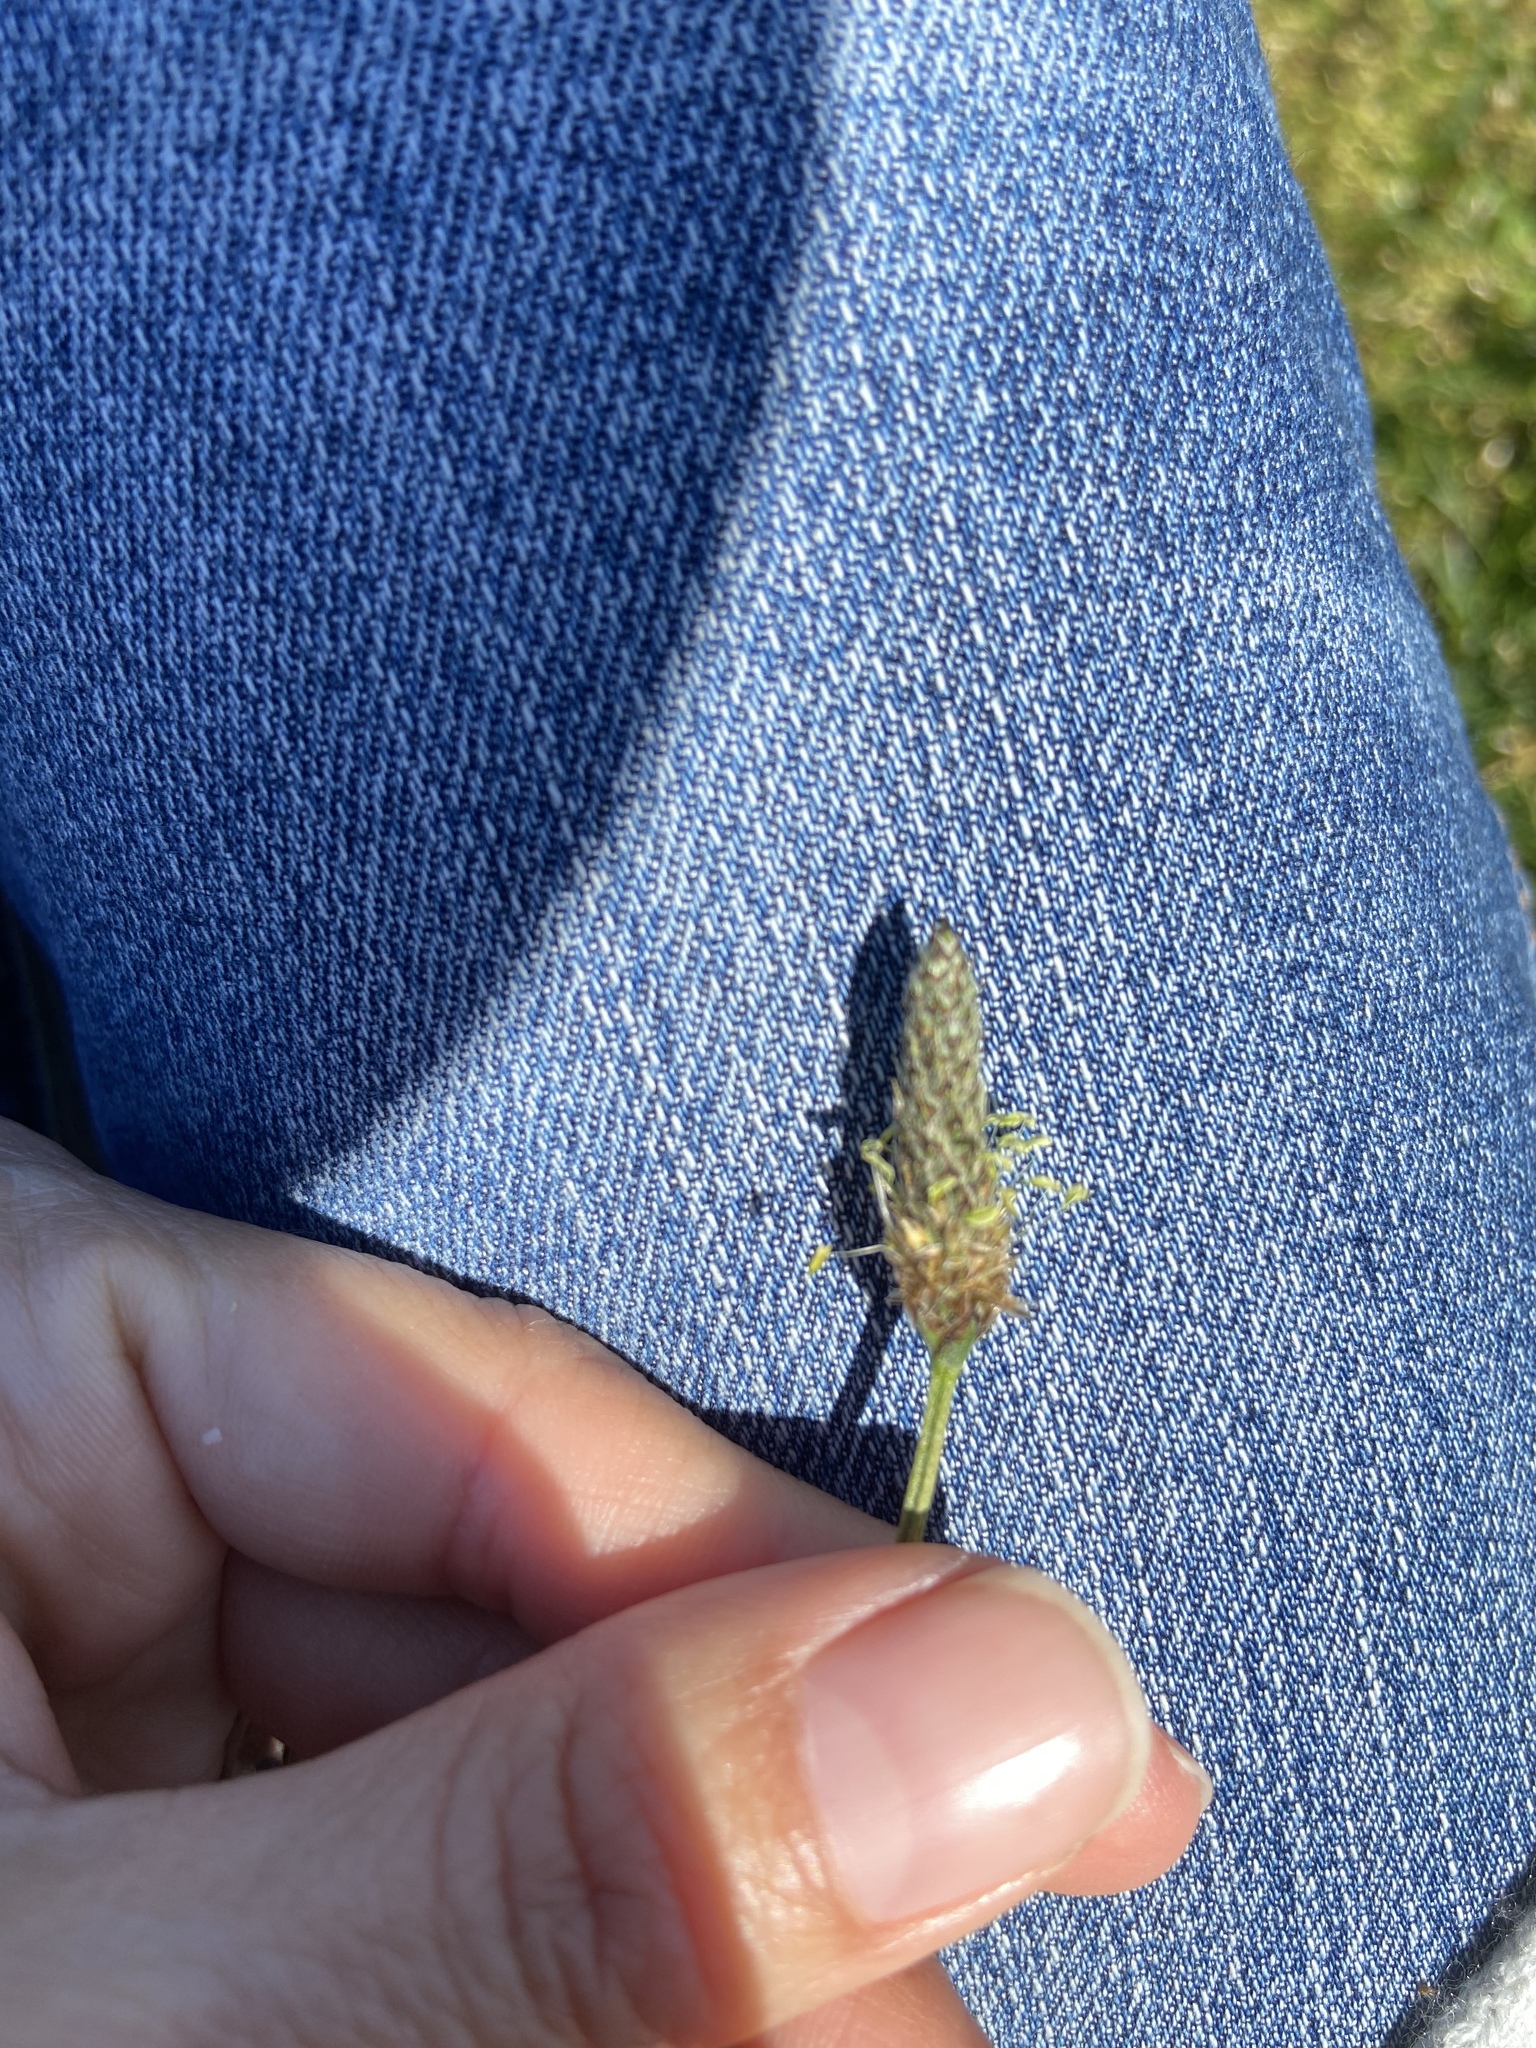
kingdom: Plantae
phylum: Tracheophyta
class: Magnoliopsida
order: Lamiales
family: Plantaginaceae
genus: Plantago
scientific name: Plantago lanceolata
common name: Ribwort plantain
